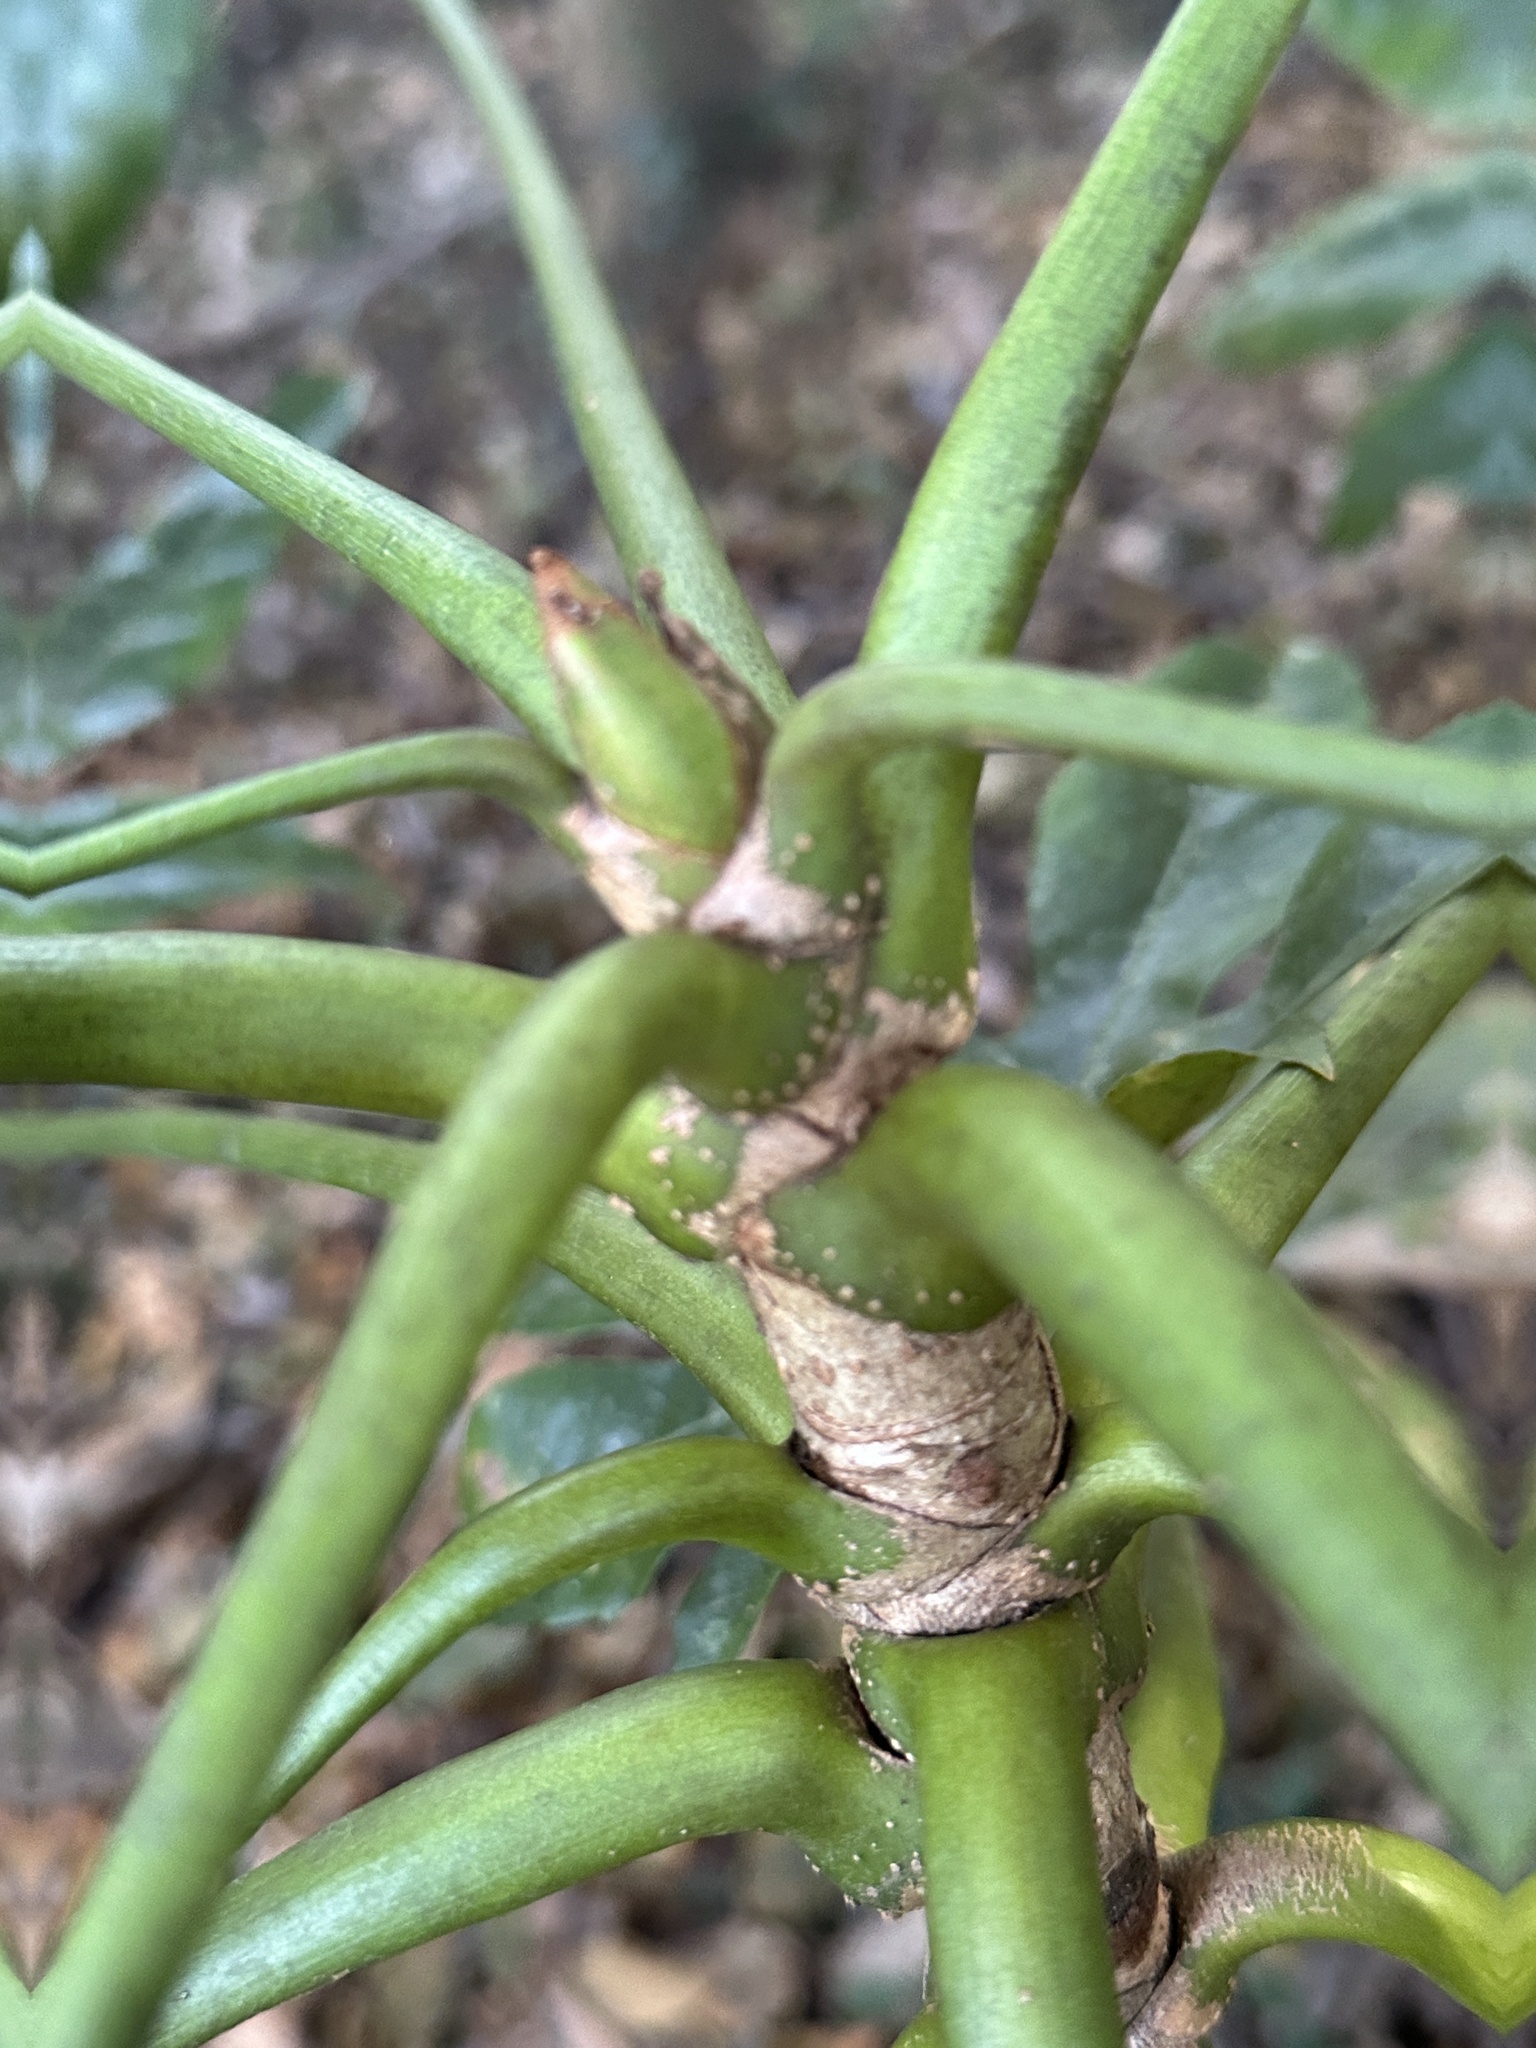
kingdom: Plantae
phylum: Tracheophyta
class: Magnoliopsida
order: Apiales
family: Araliaceae
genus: Fatsia
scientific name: Fatsia japonica
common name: Fatsia
